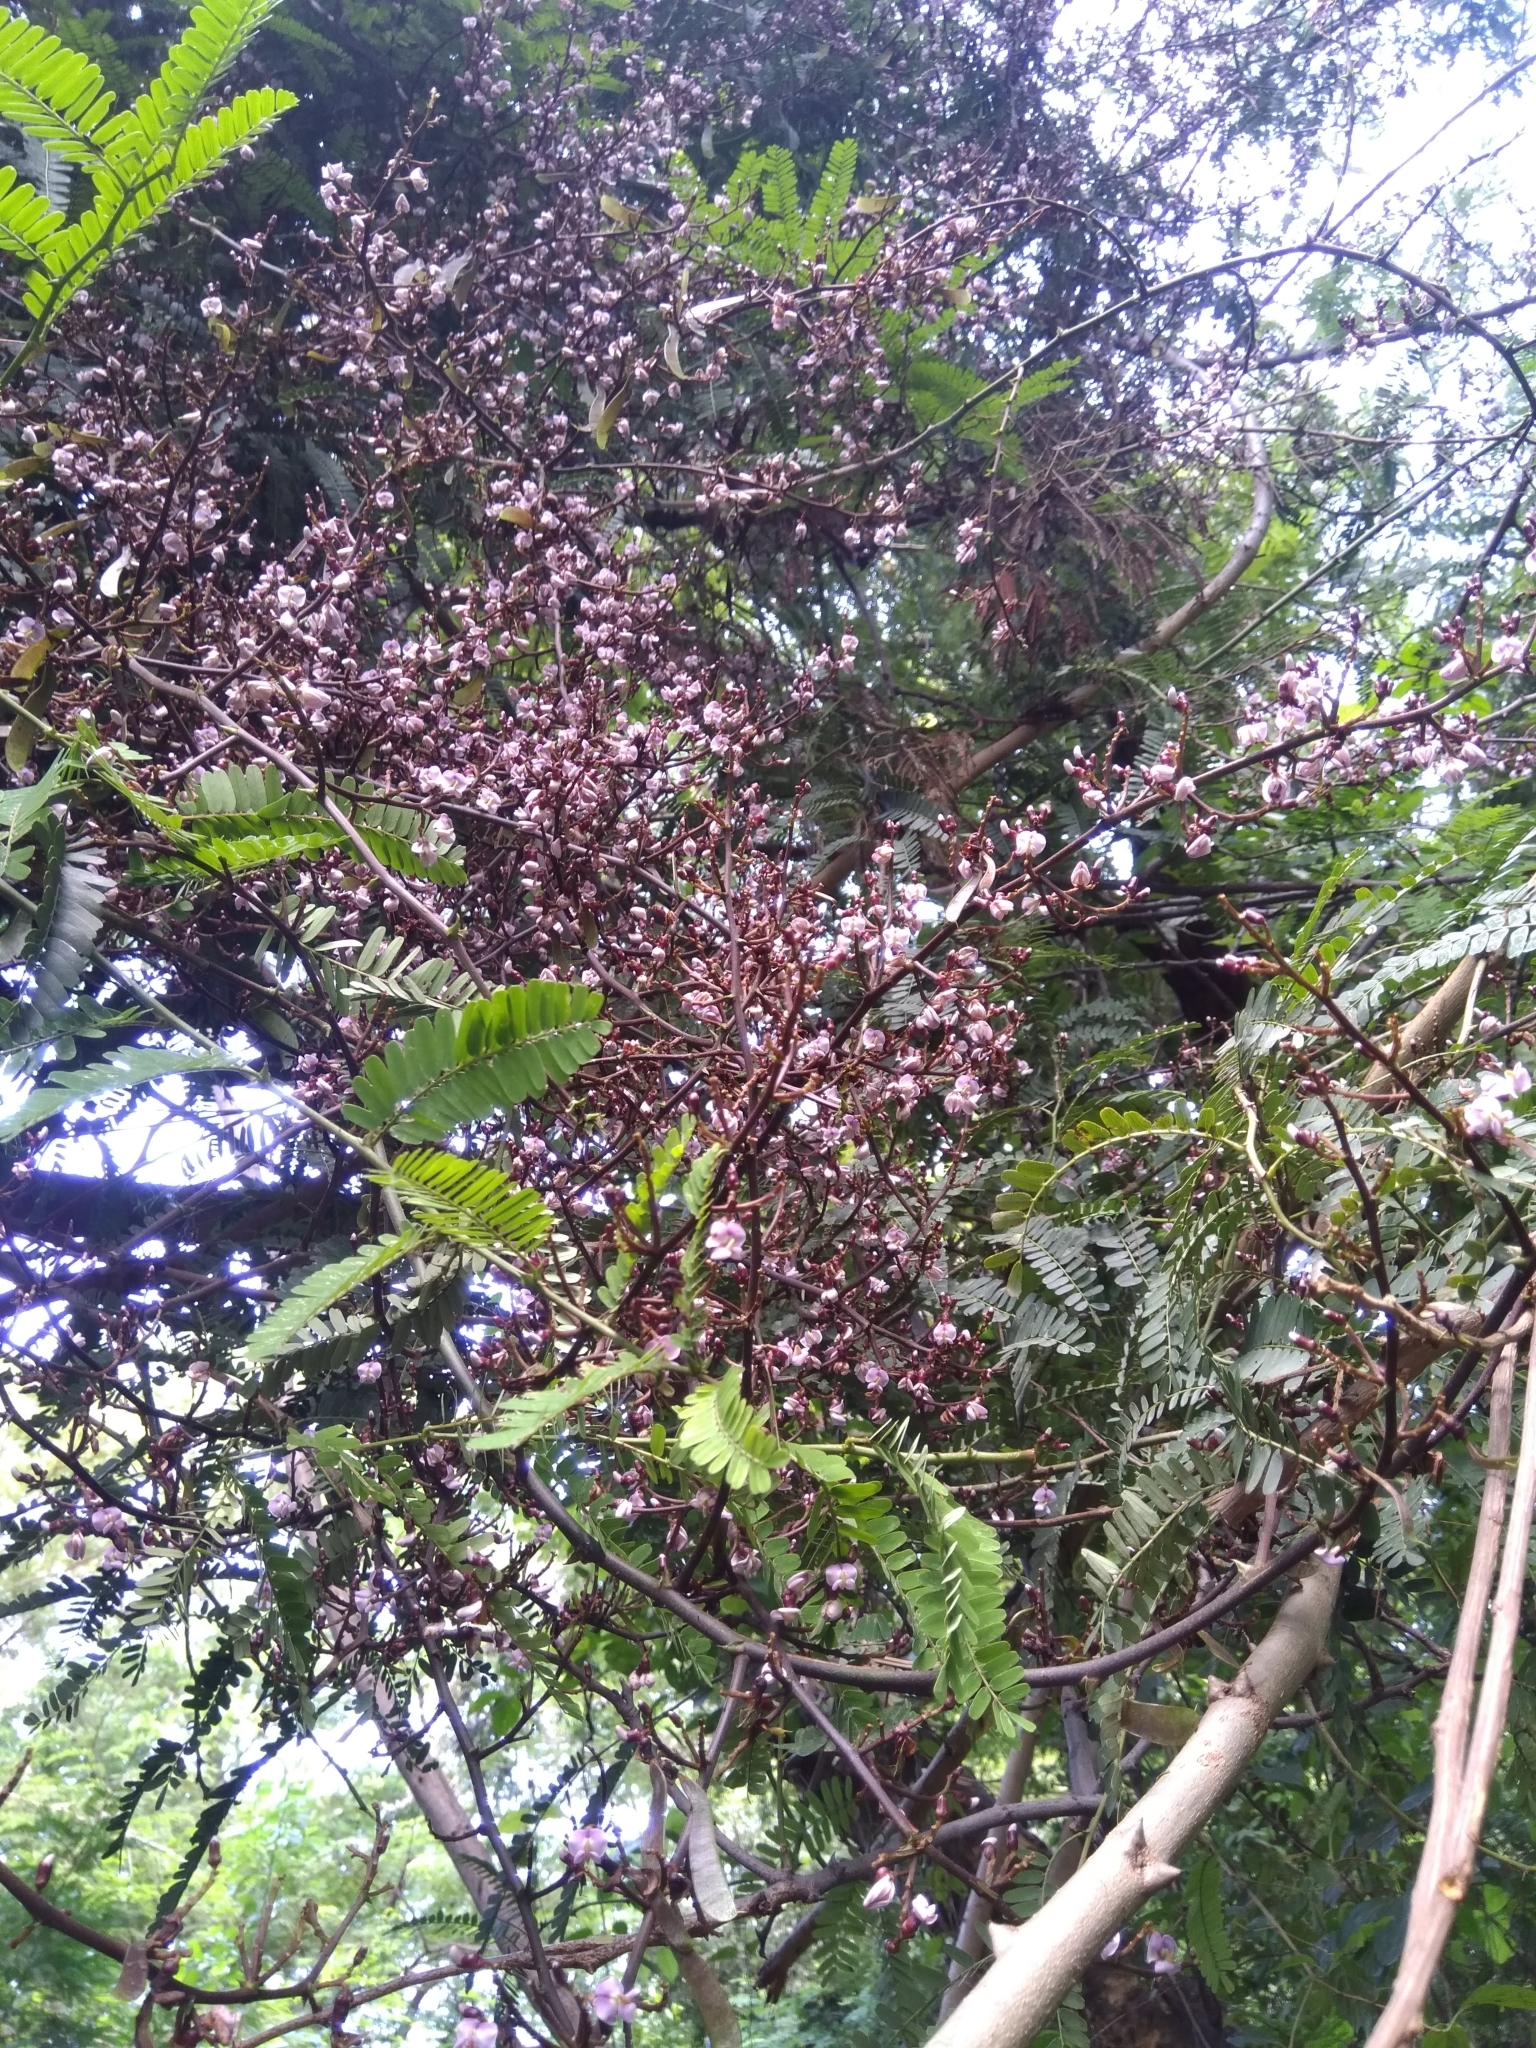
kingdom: Plantae
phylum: Tracheophyta
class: Magnoliopsida
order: Fabales
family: Fabaceae
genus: Machaerium
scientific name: Machaerium isadelphum
